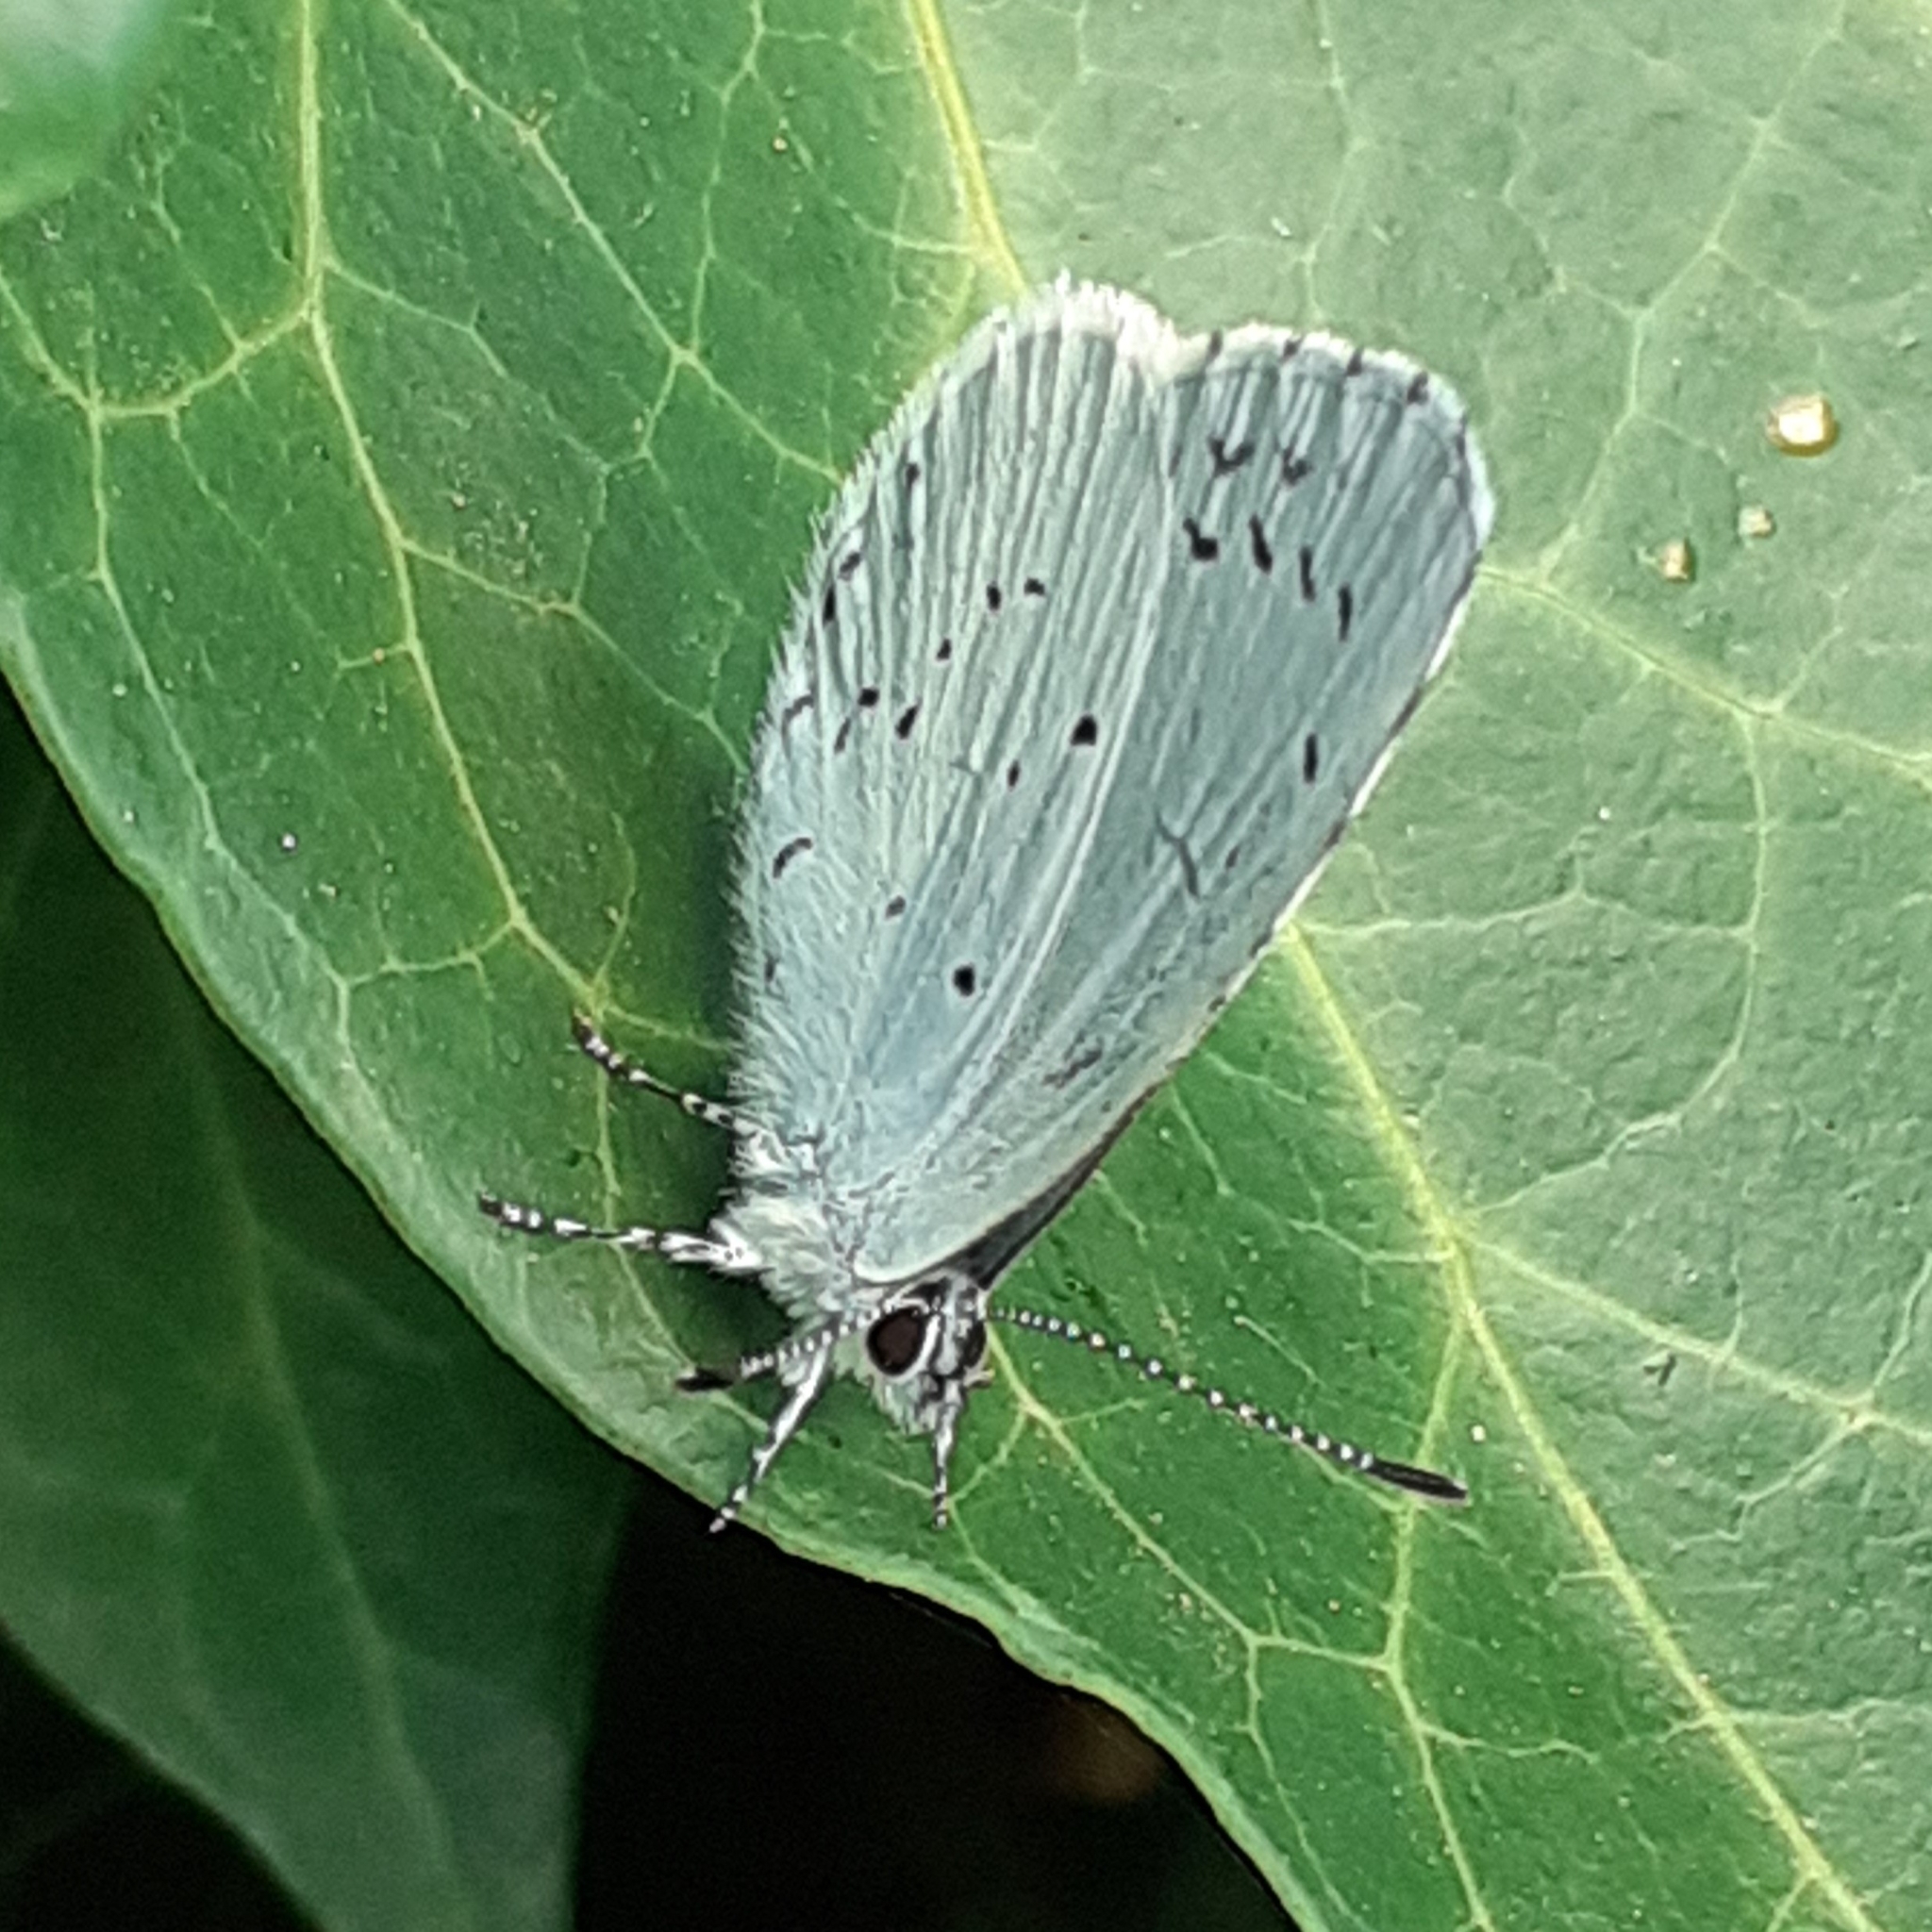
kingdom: Animalia
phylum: Arthropoda
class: Insecta
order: Lepidoptera
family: Lycaenidae
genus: Celastrina
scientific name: Celastrina argiolus
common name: Holly blue
